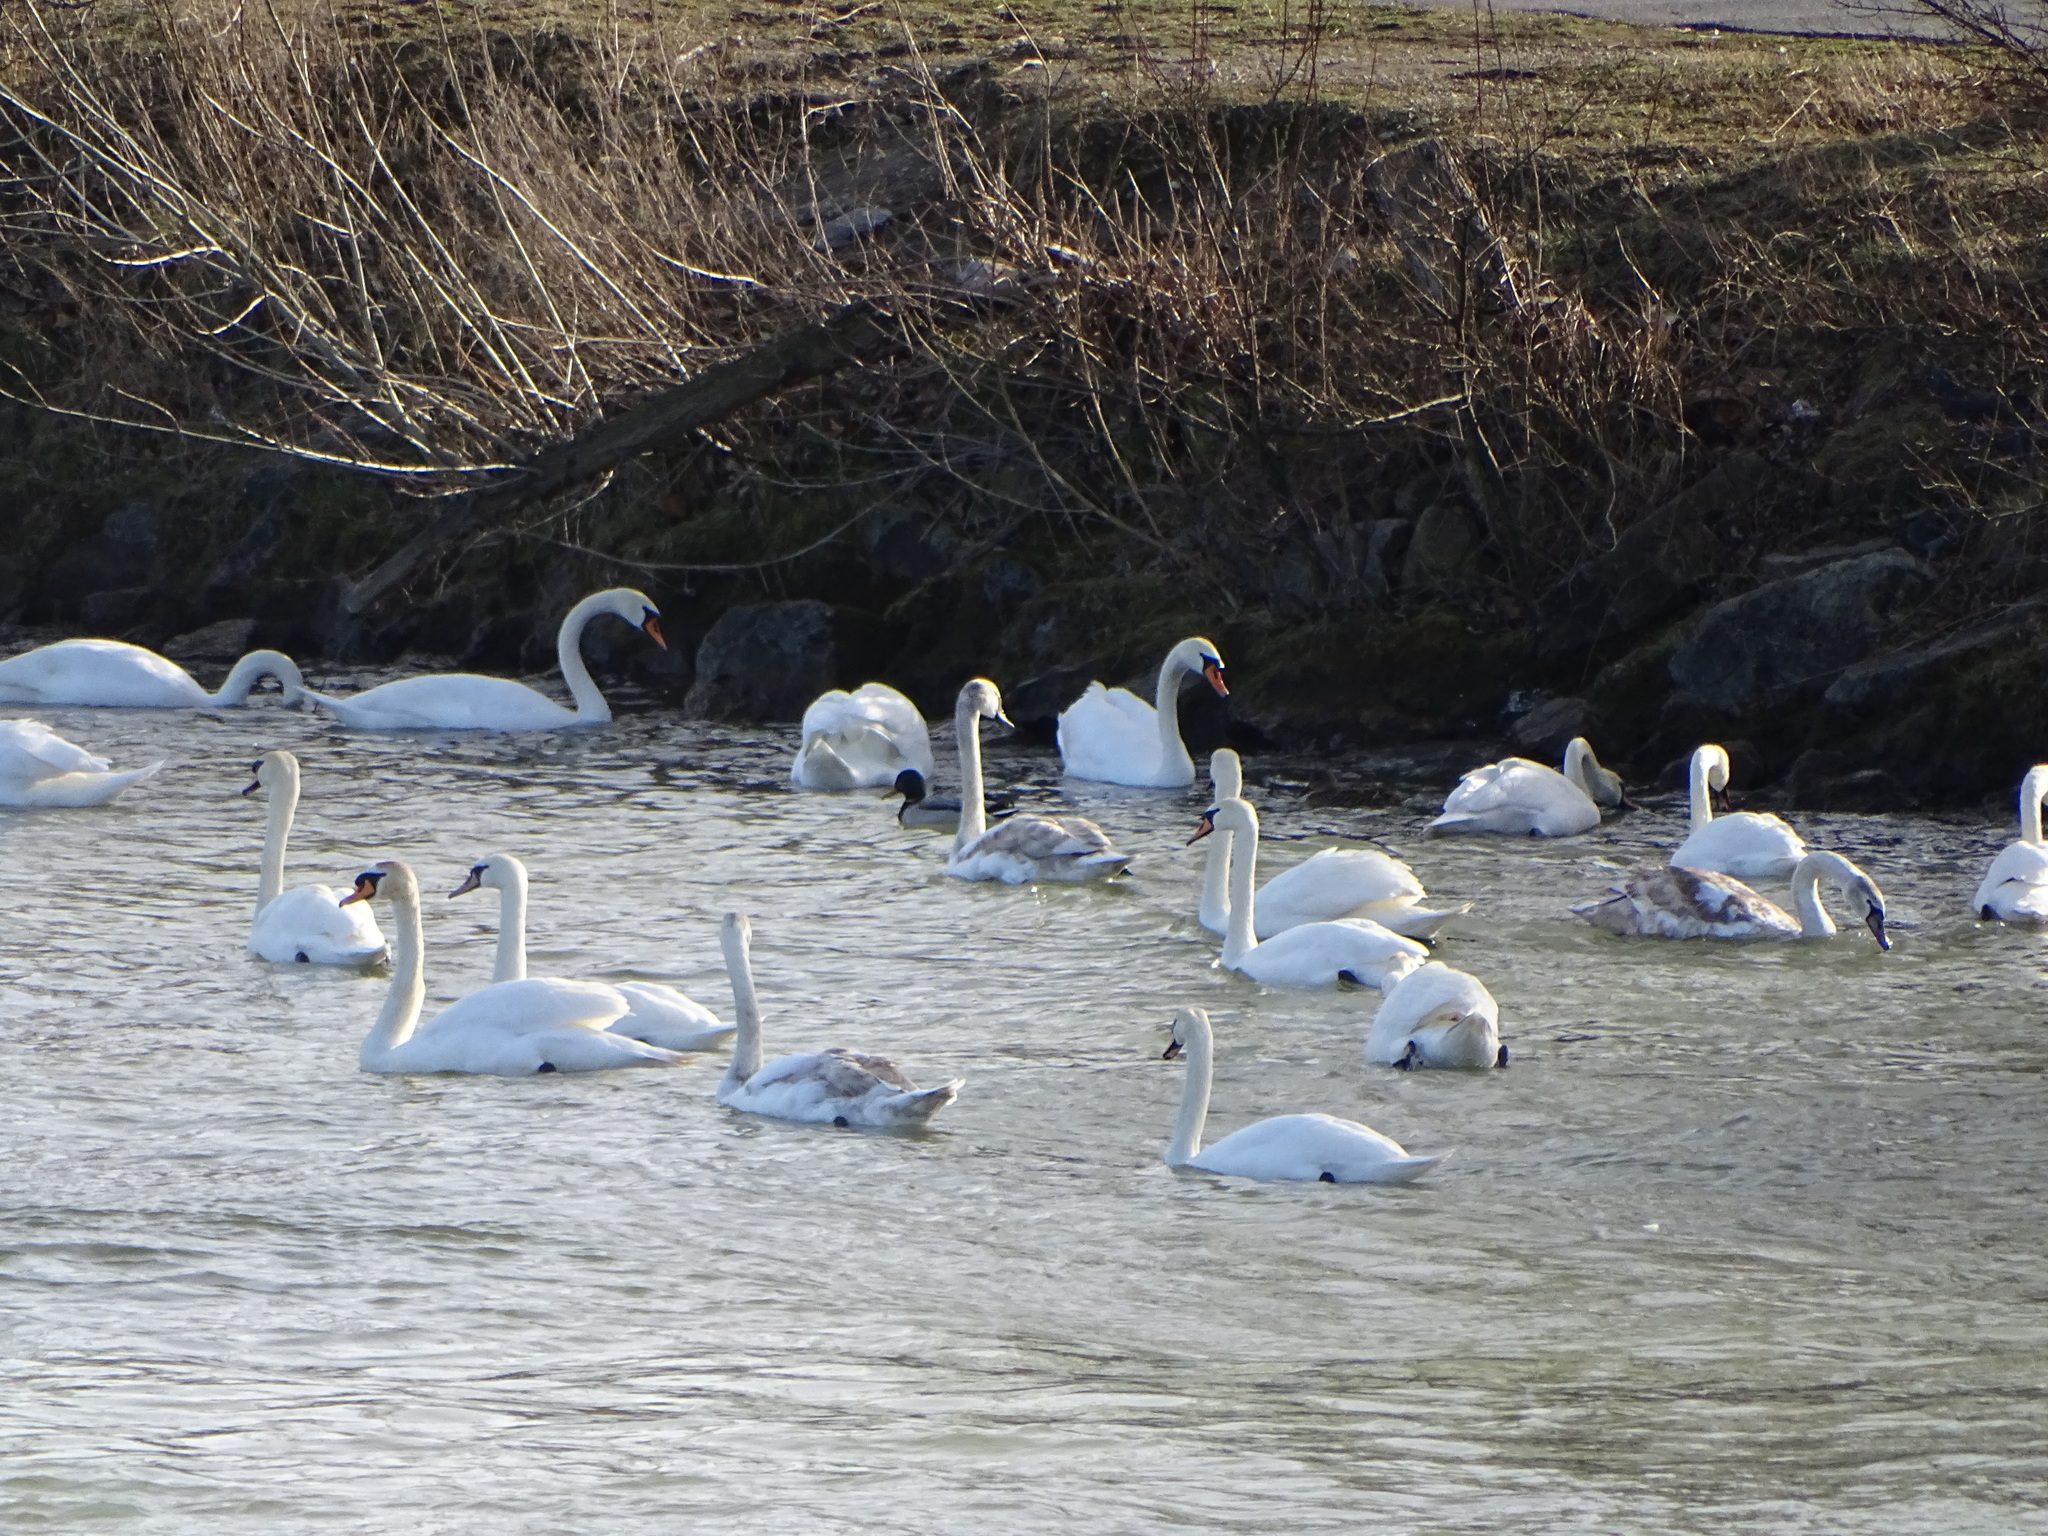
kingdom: Animalia
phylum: Chordata
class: Aves
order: Anseriformes
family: Anatidae
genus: Cygnus
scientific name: Cygnus olor
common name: Mute swan
